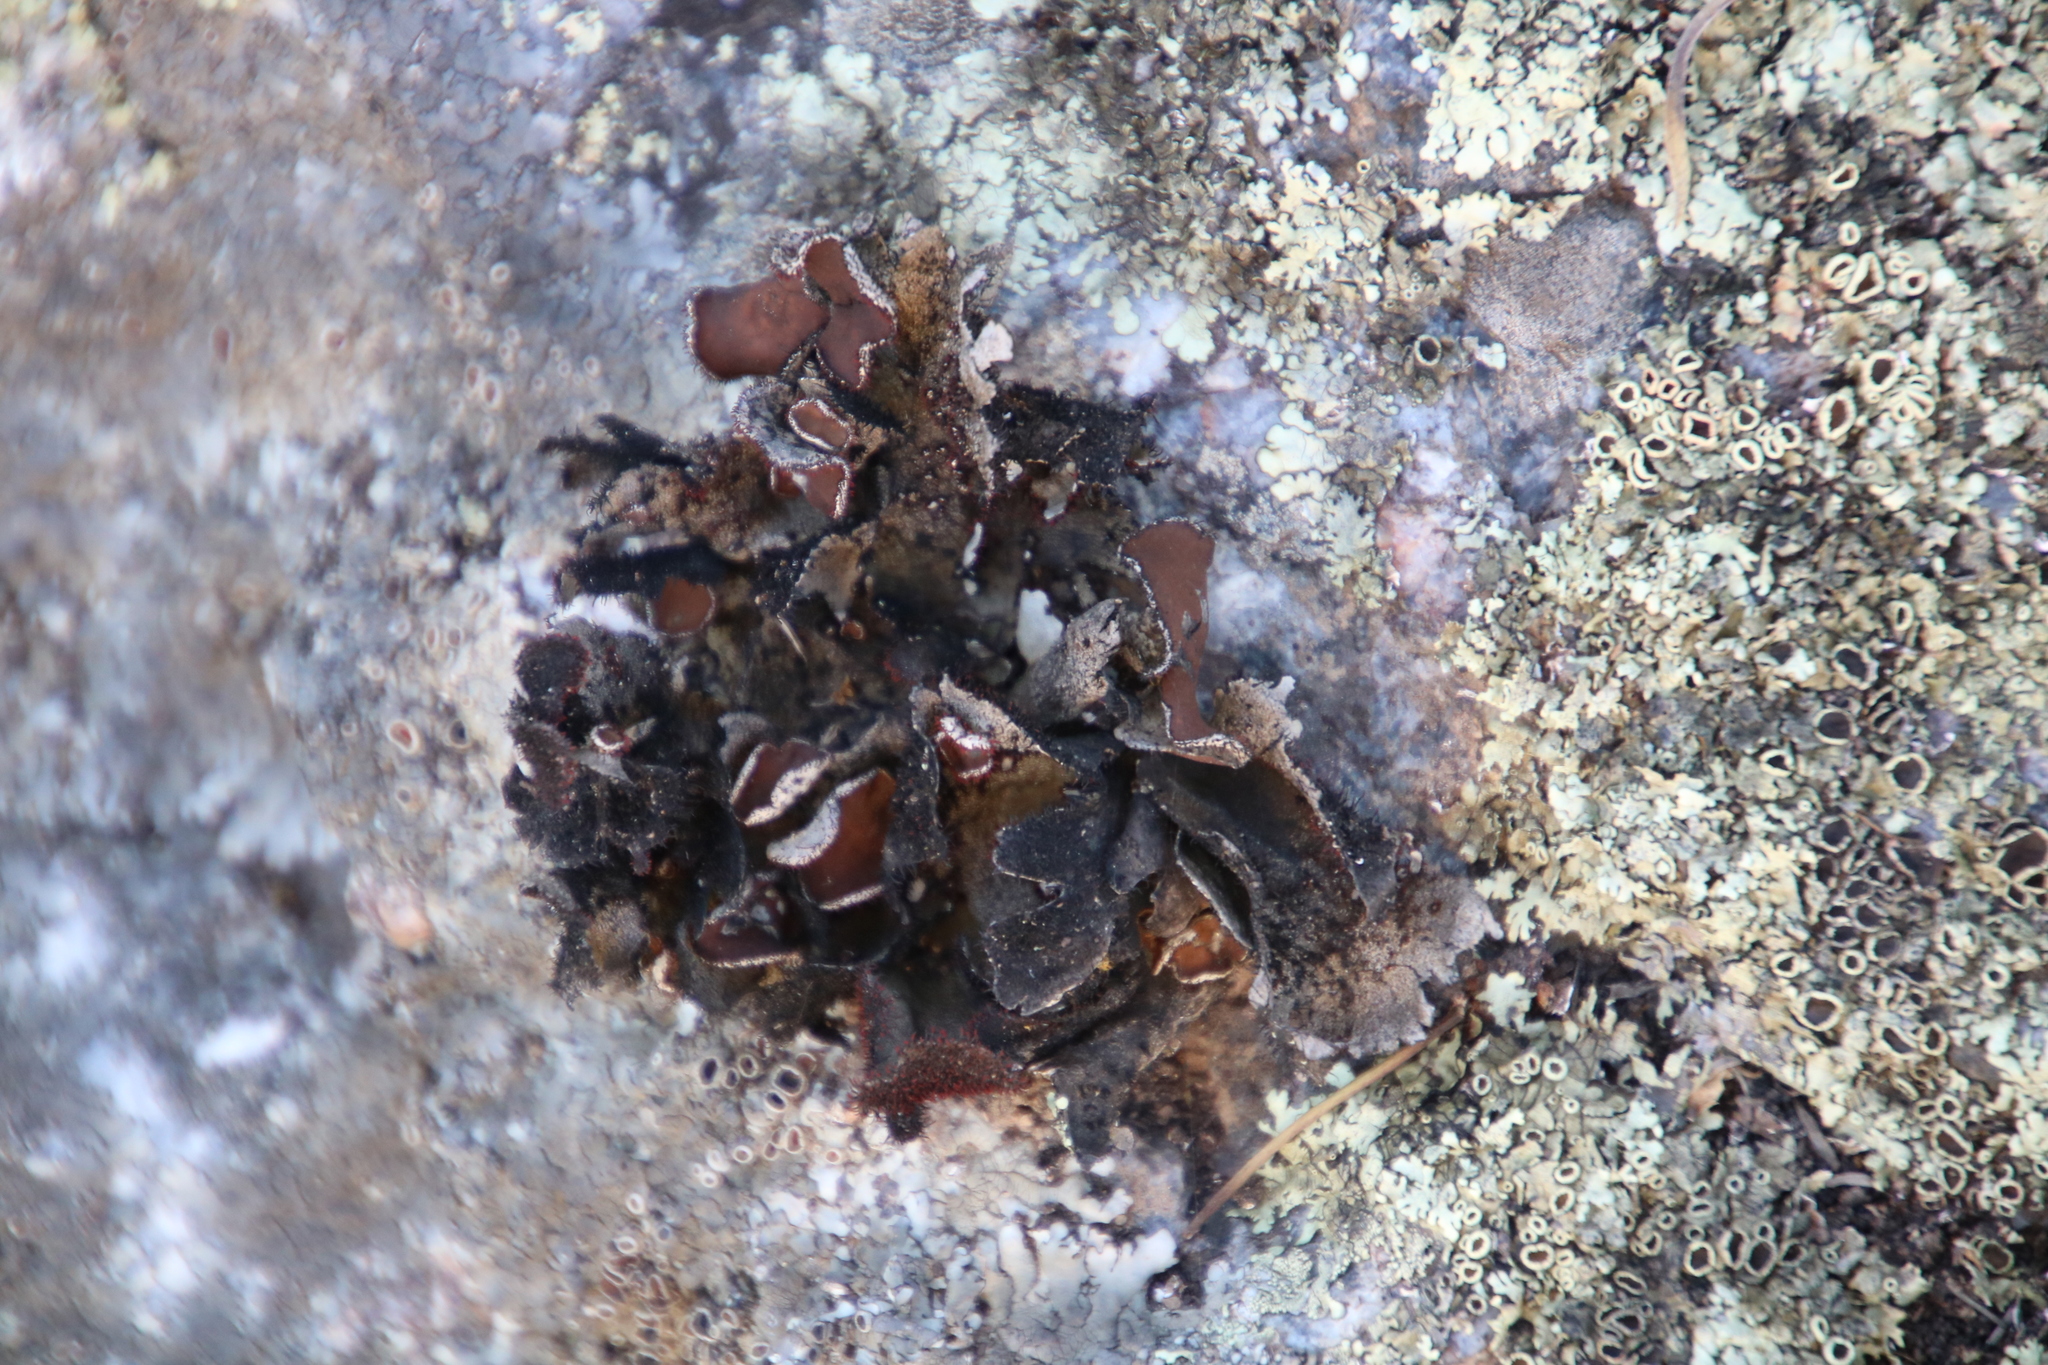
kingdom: Fungi
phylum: Ascomycota
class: Lecanoromycetes
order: Lecanorales
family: Parmeliaceae
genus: Xanthoparmelia
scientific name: Xanthoparmelia hottentotta
